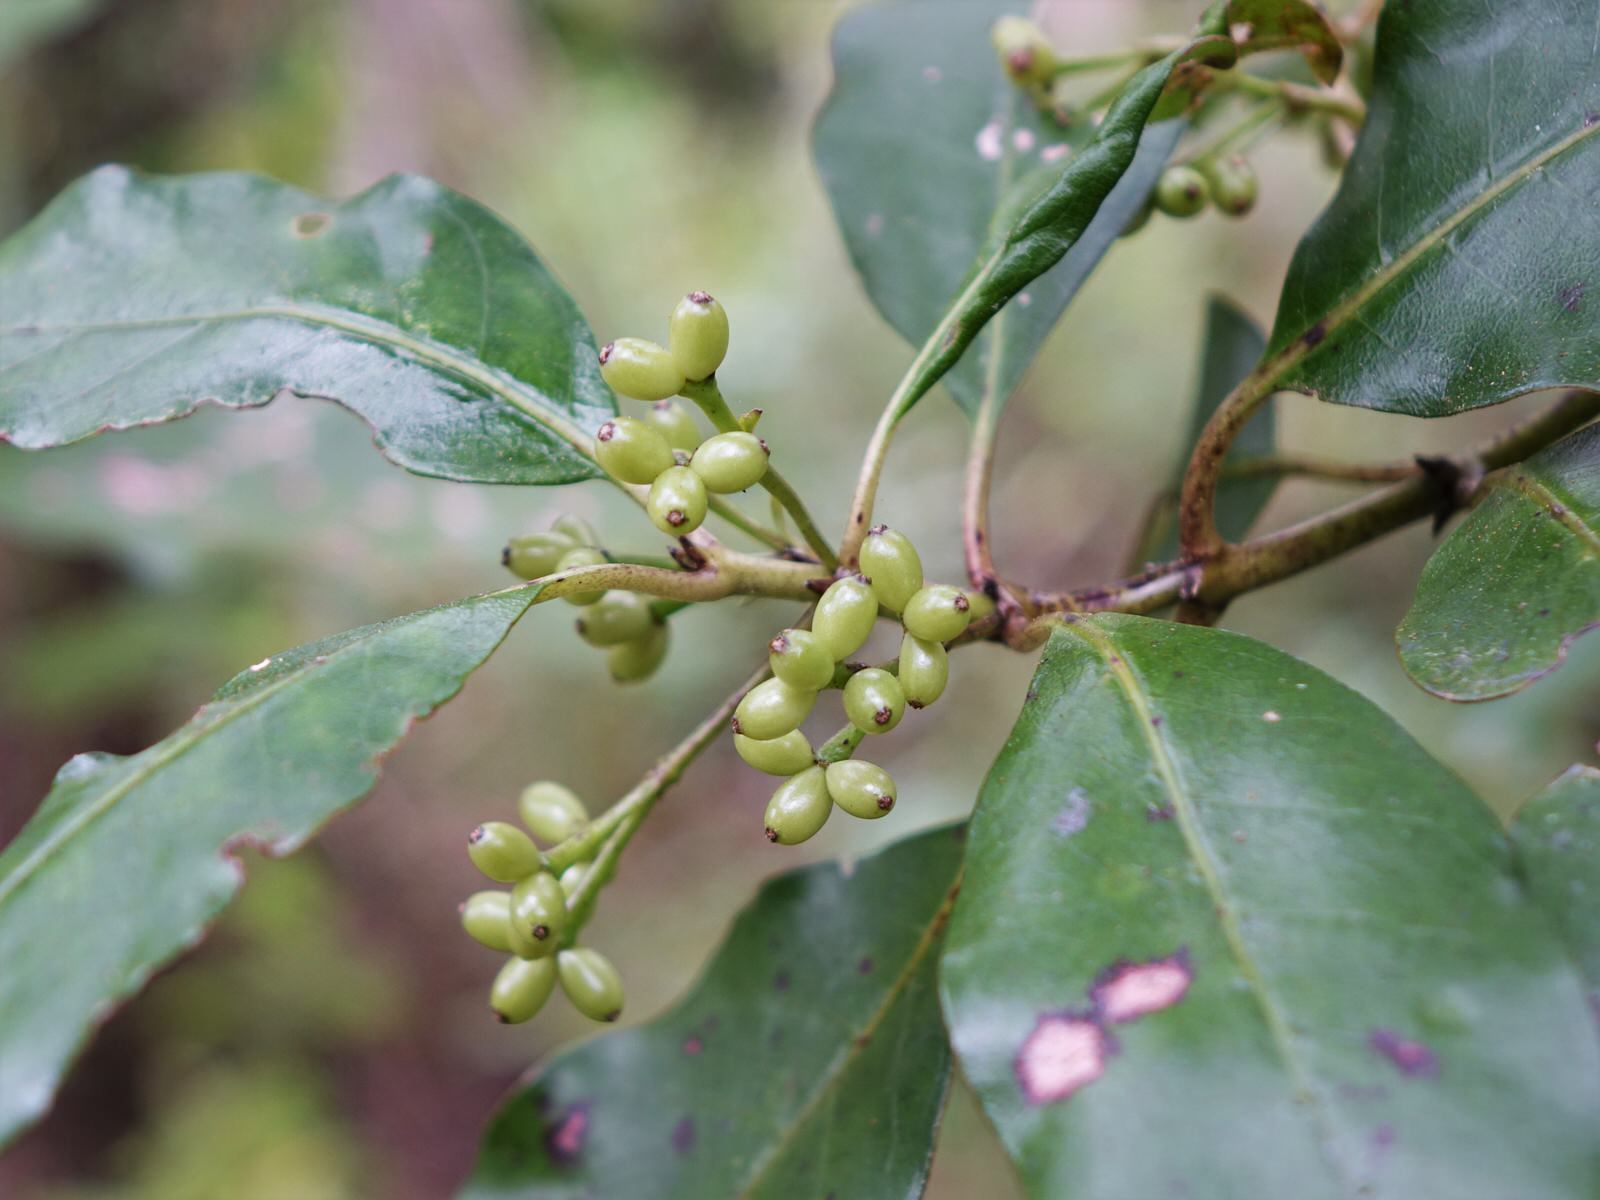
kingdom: Plantae
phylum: Tracheophyta
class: Magnoliopsida
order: Gentianales
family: Rubiaceae
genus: Coprosma
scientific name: Coprosma autumnalis
